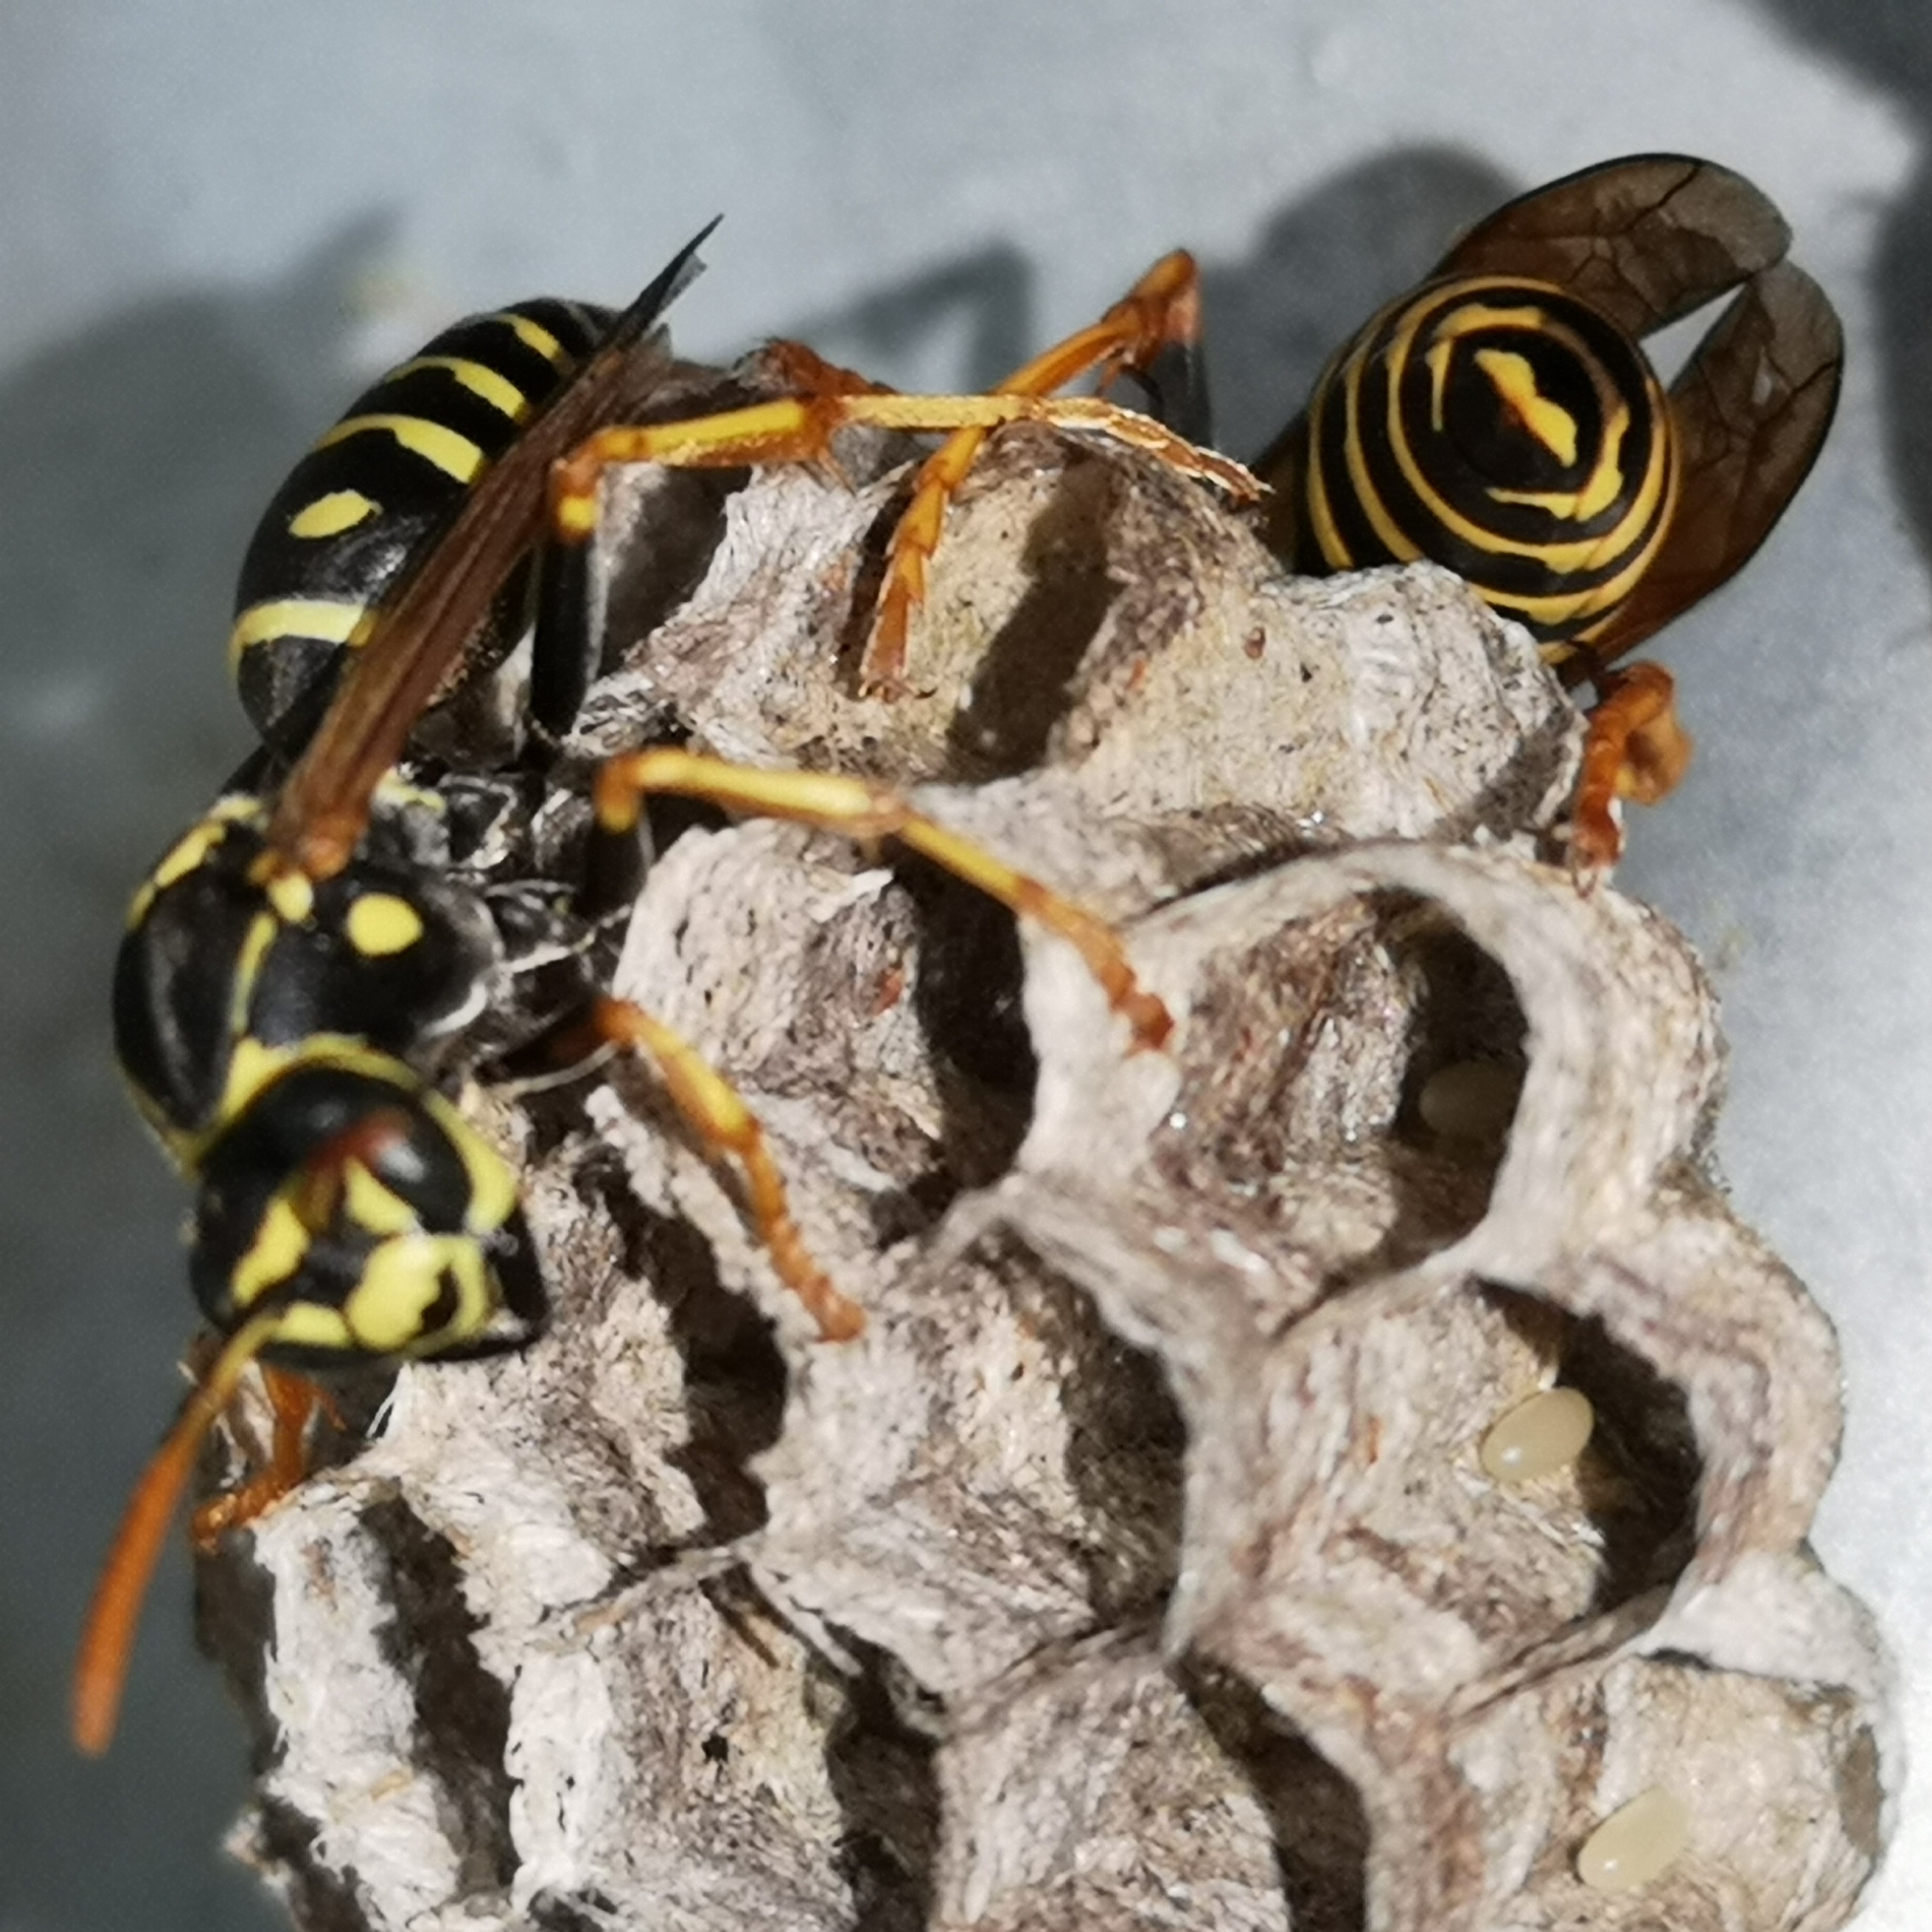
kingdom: Animalia
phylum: Arthropoda
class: Insecta
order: Hymenoptera
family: Eumenidae
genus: Polistes
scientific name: Polistes nimpha
